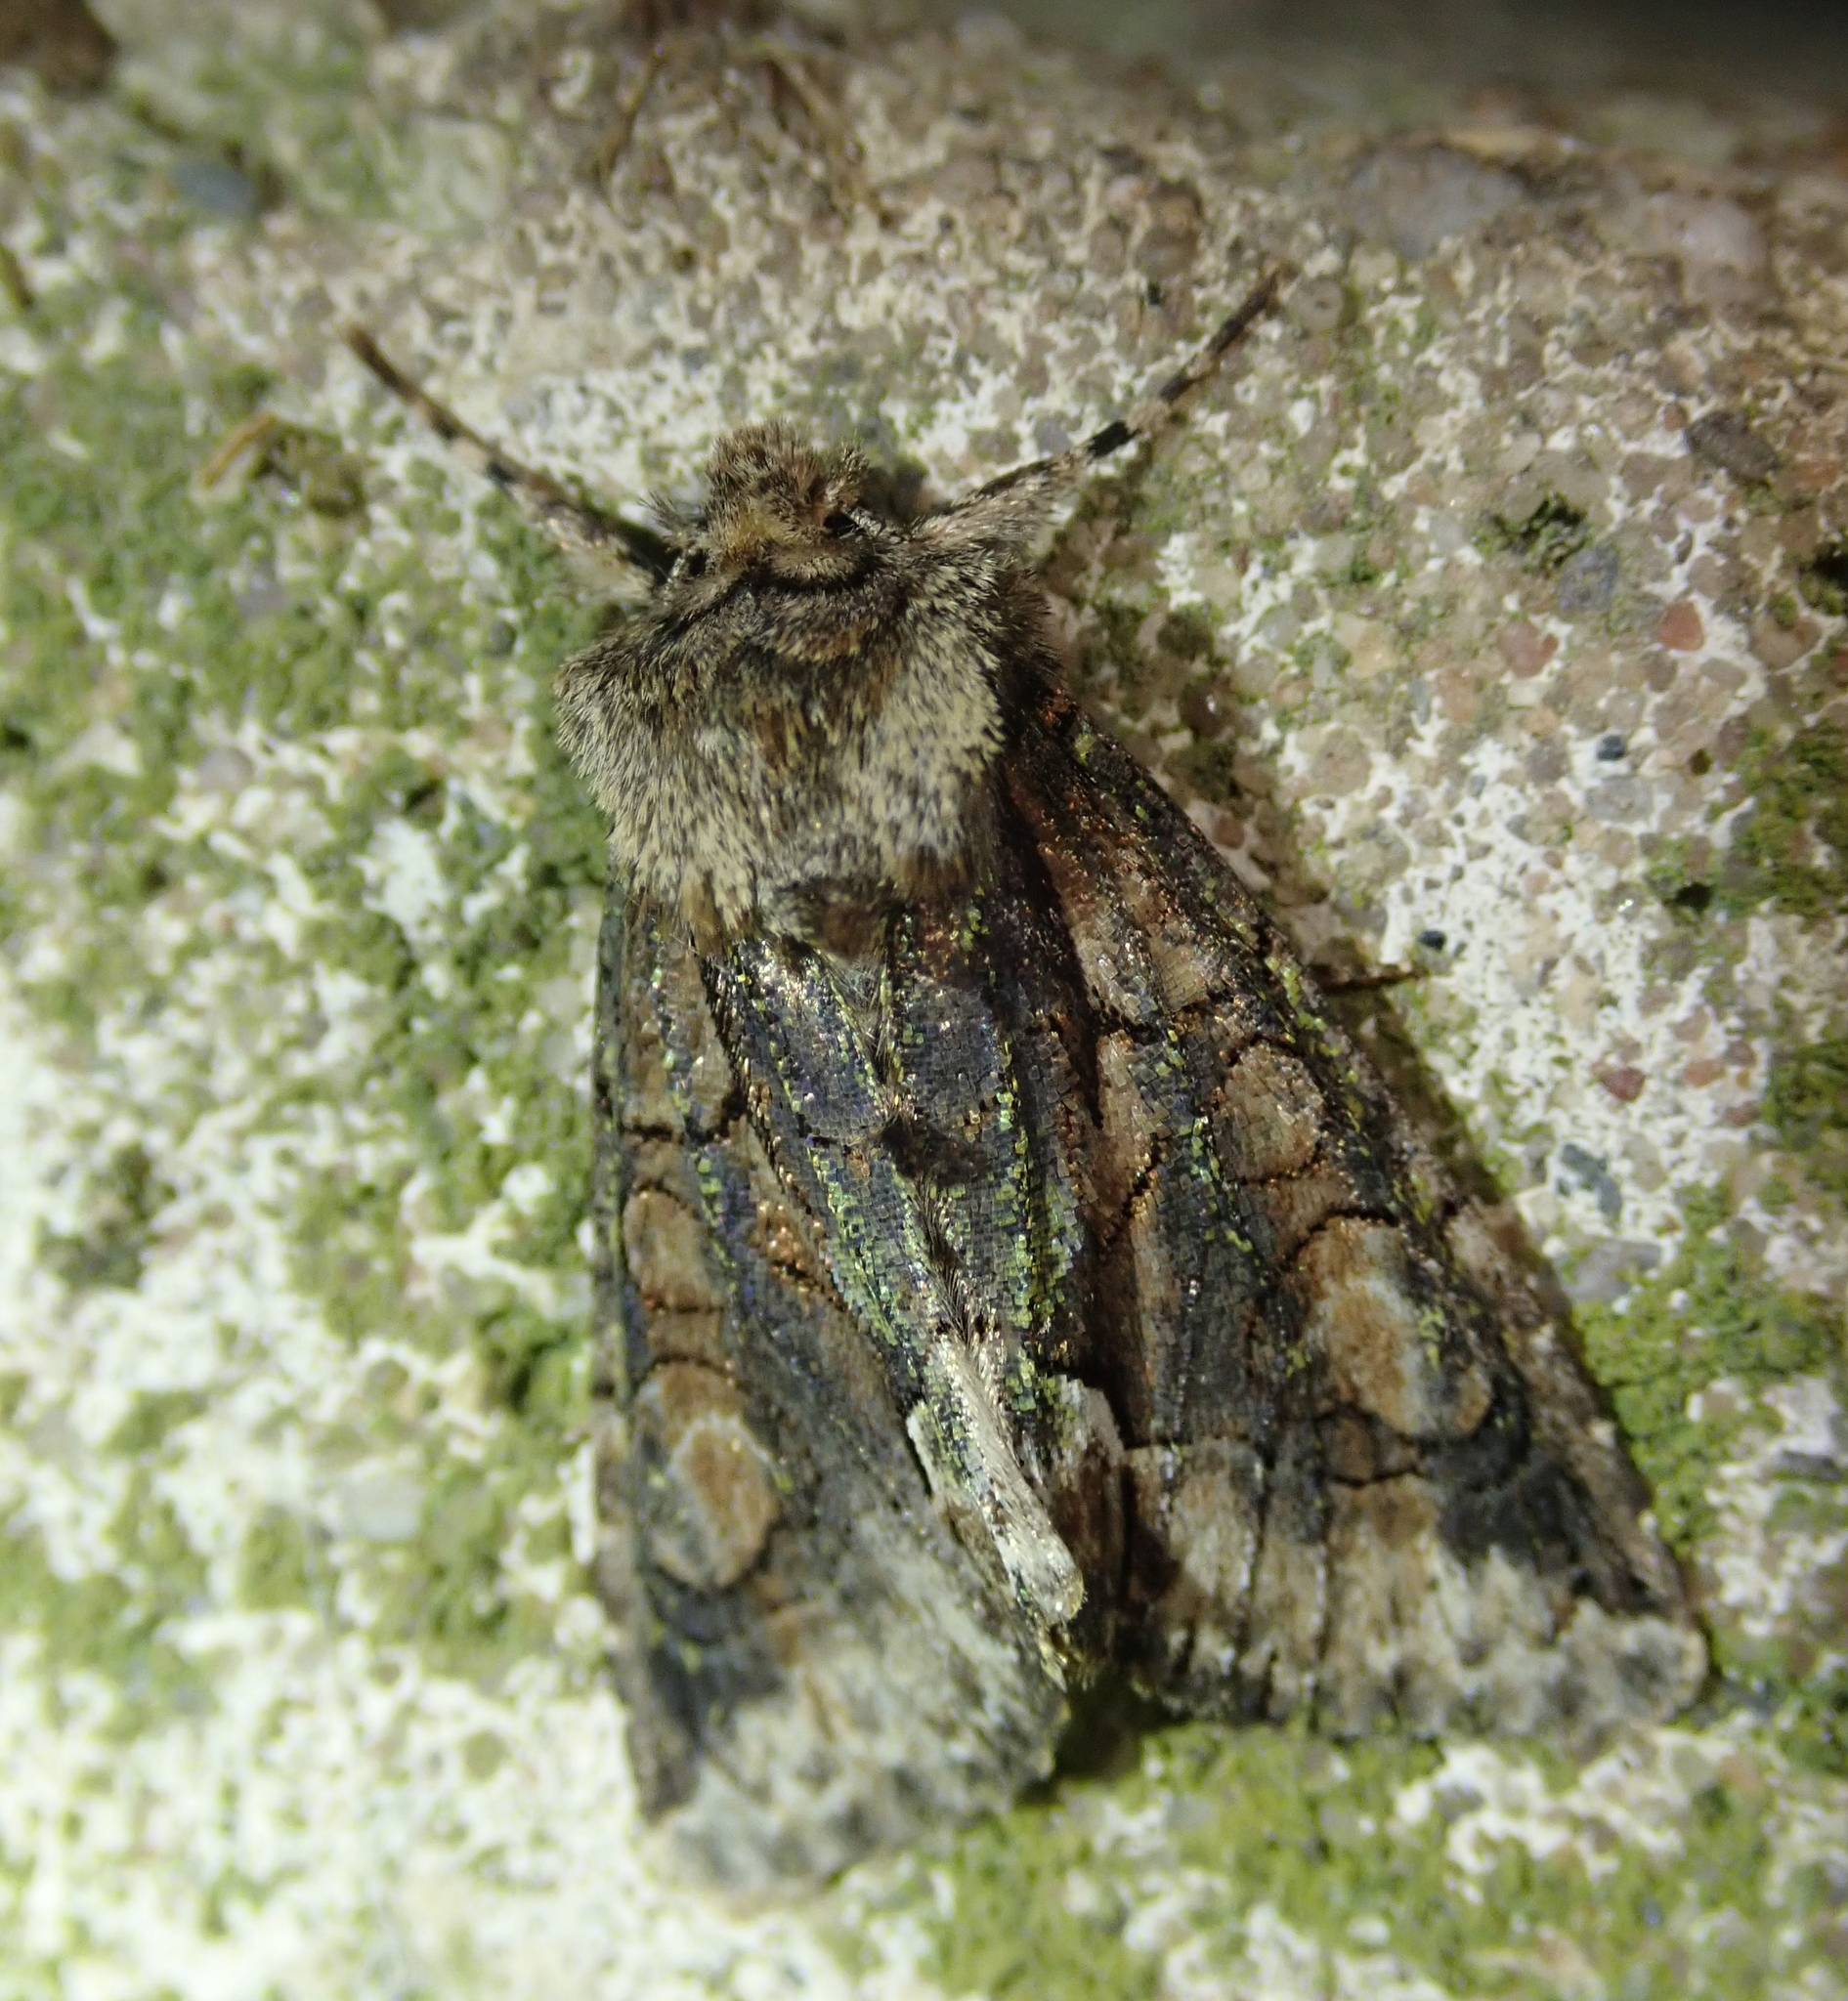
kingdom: Animalia
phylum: Arthropoda
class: Insecta
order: Lepidoptera
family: Noctuidae
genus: Allophyes
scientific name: Allophyes oxyacanthae
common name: Green-brindled crescent
